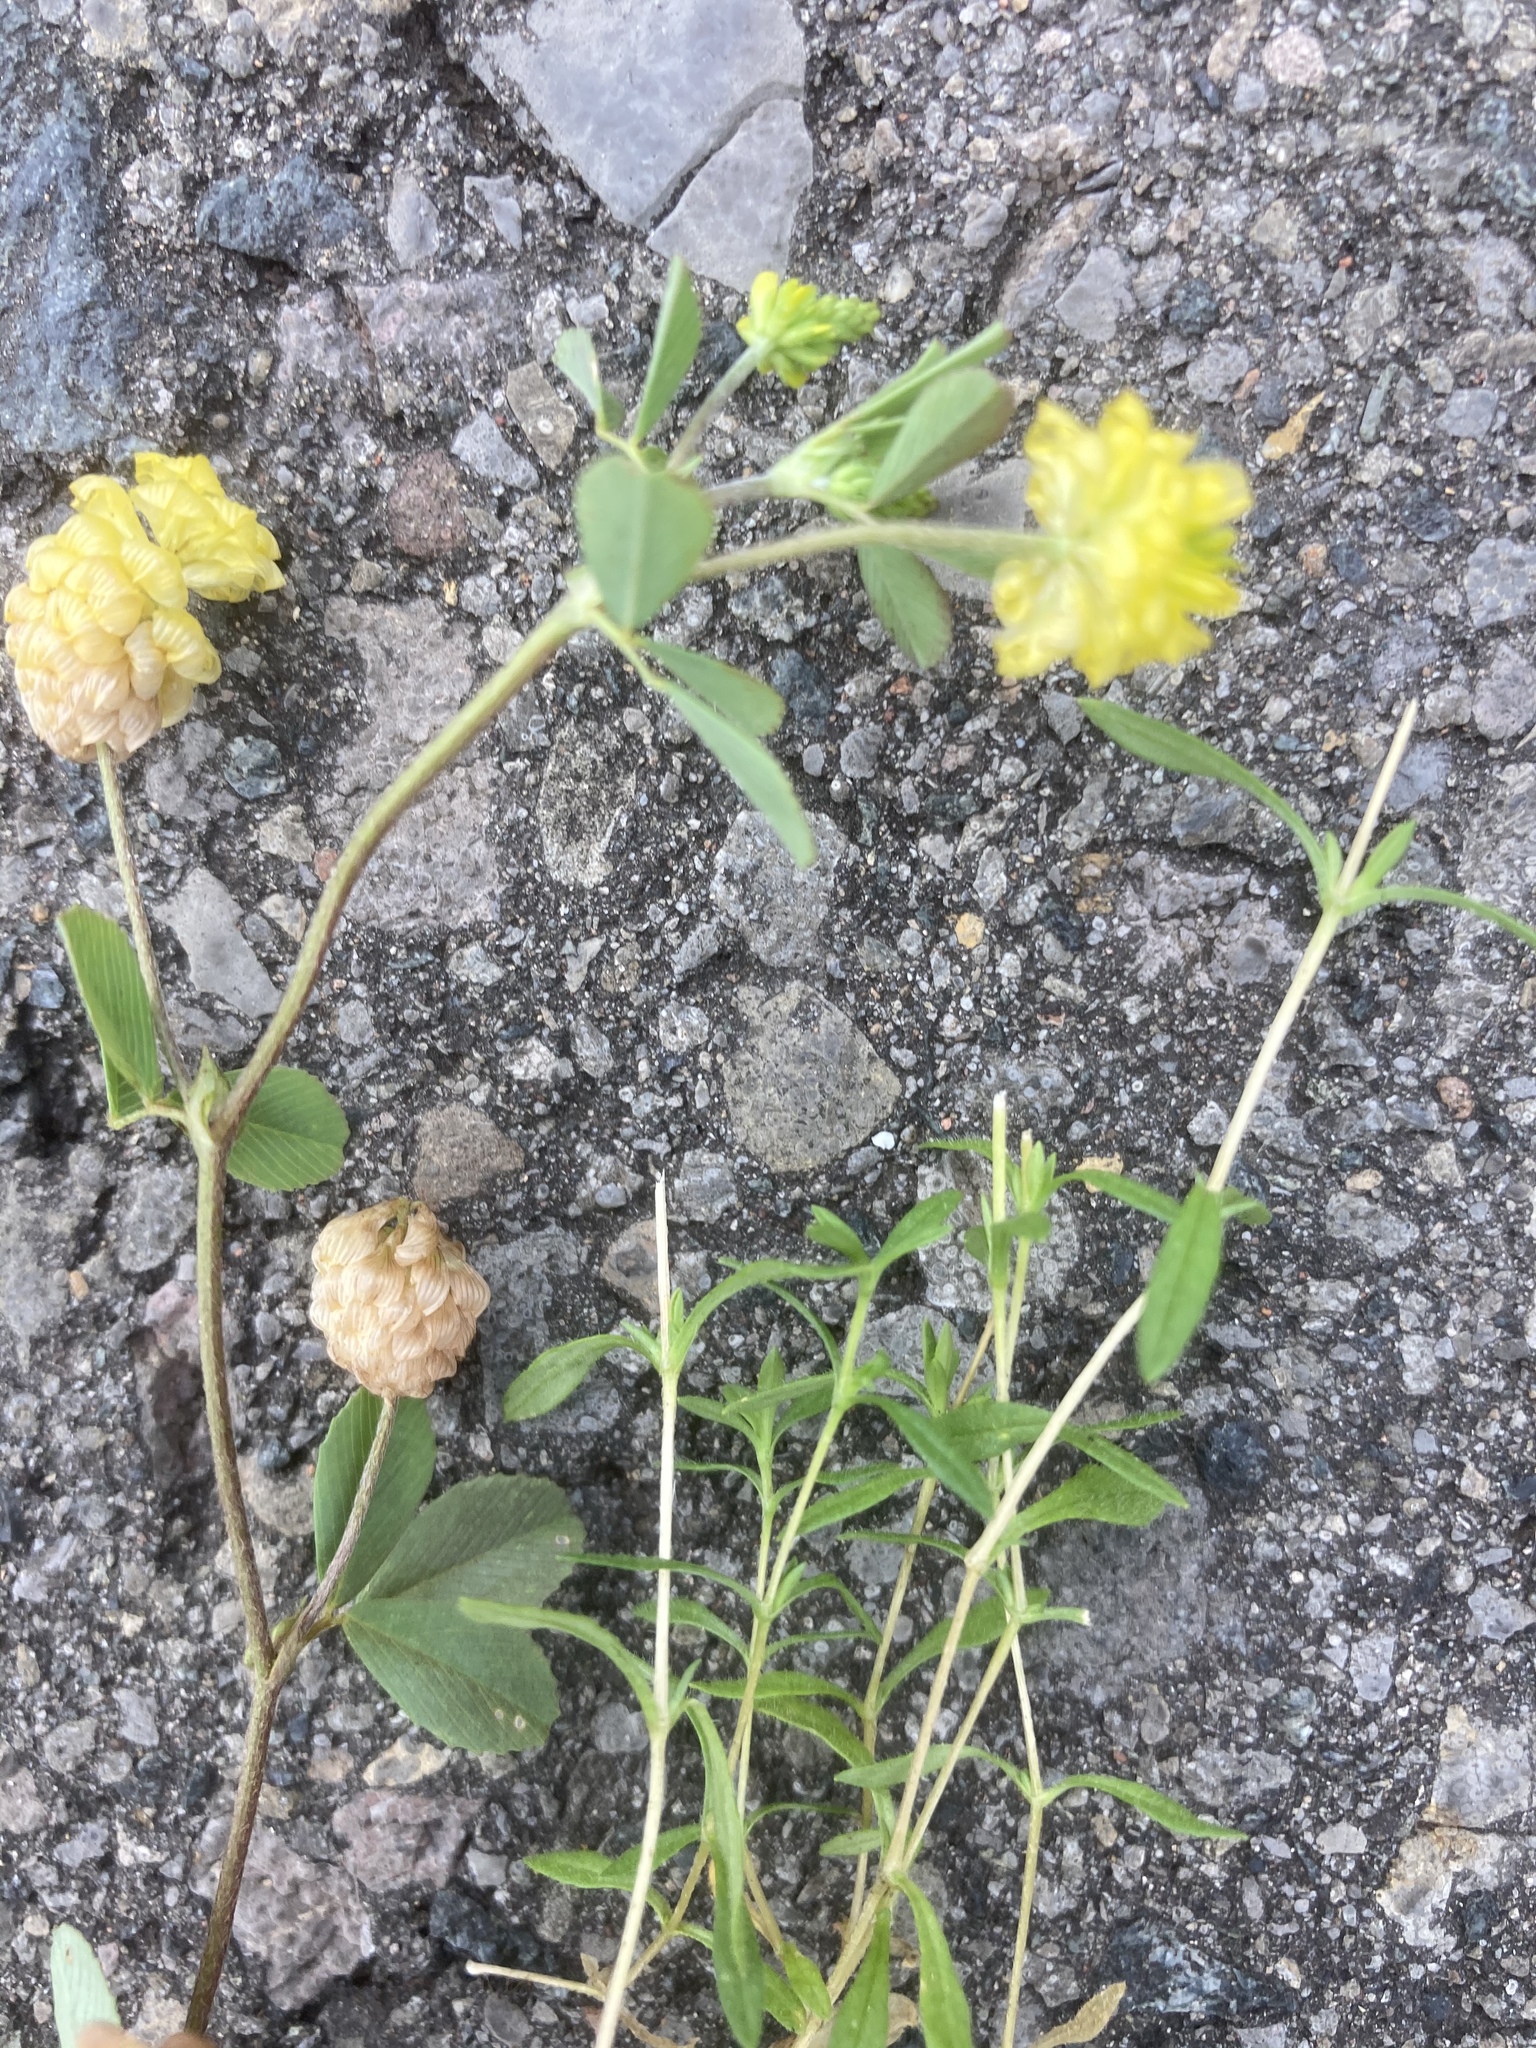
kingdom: Plantae
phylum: Tracheophyta
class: Magnoliopsida
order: Fabales
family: Fabaceae
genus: Trifolium
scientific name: Trifolium campestre
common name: Field clover
